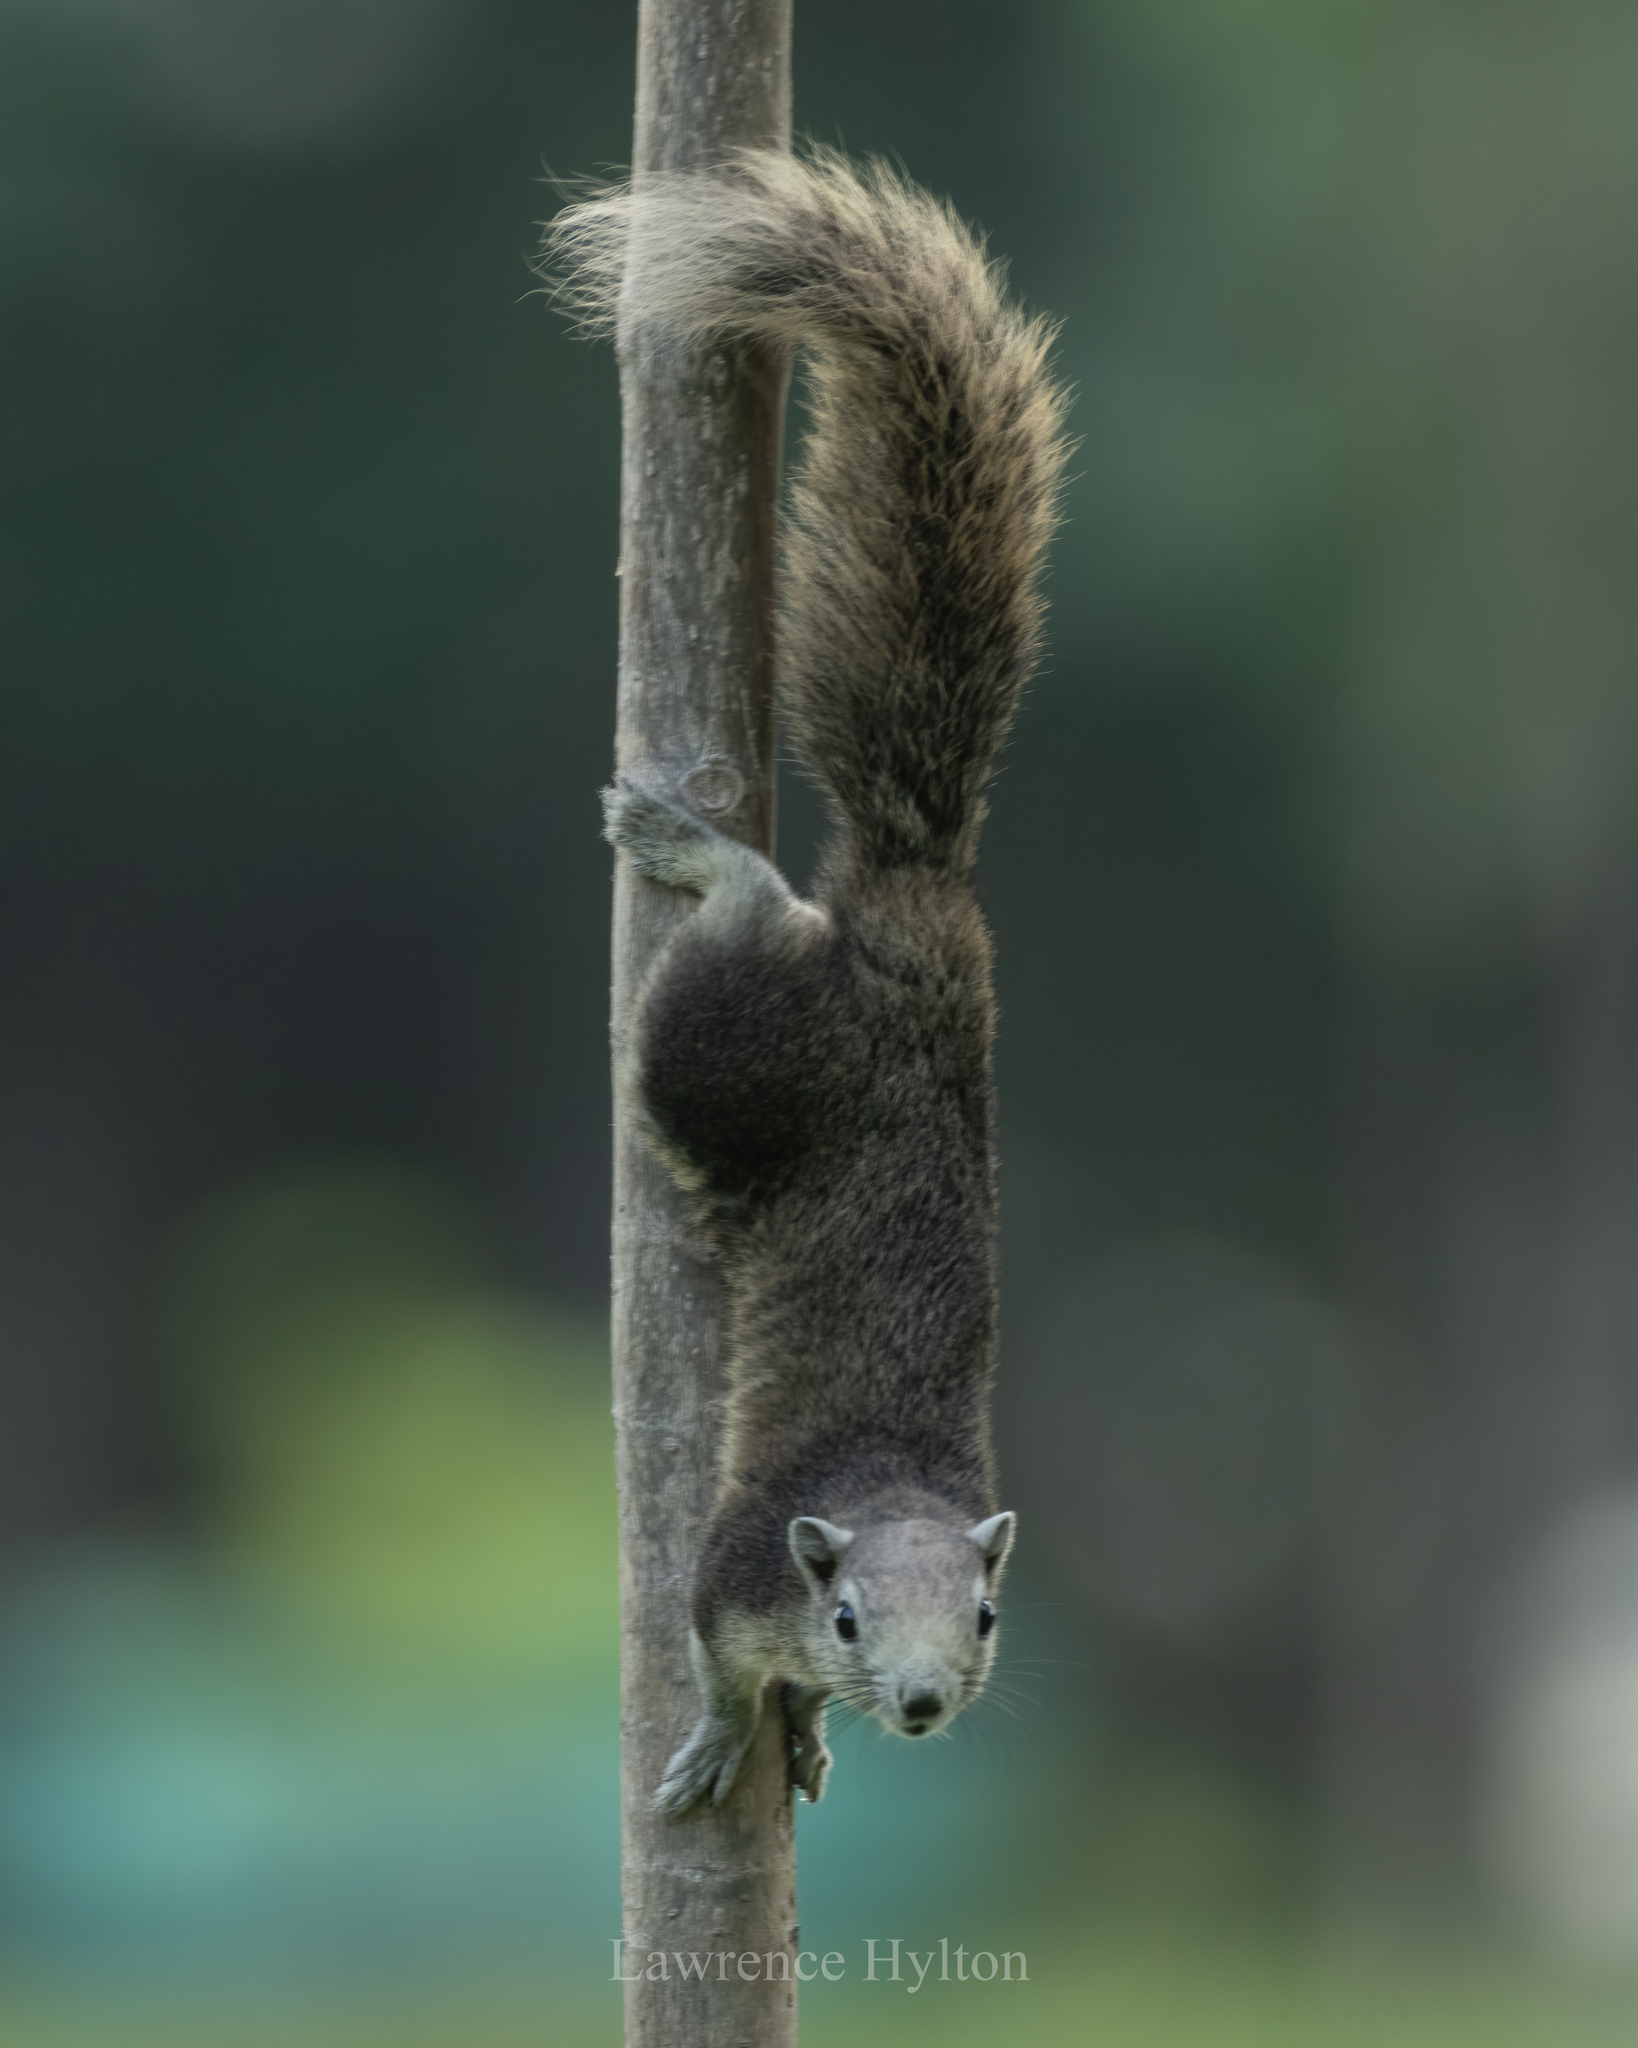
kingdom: Animalia
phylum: Chordata
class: Mammalia
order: Rodentia
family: Sciuridae
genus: Callosciurus
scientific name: Callosciurus finlaysonii
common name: Finlayson's squirrel
